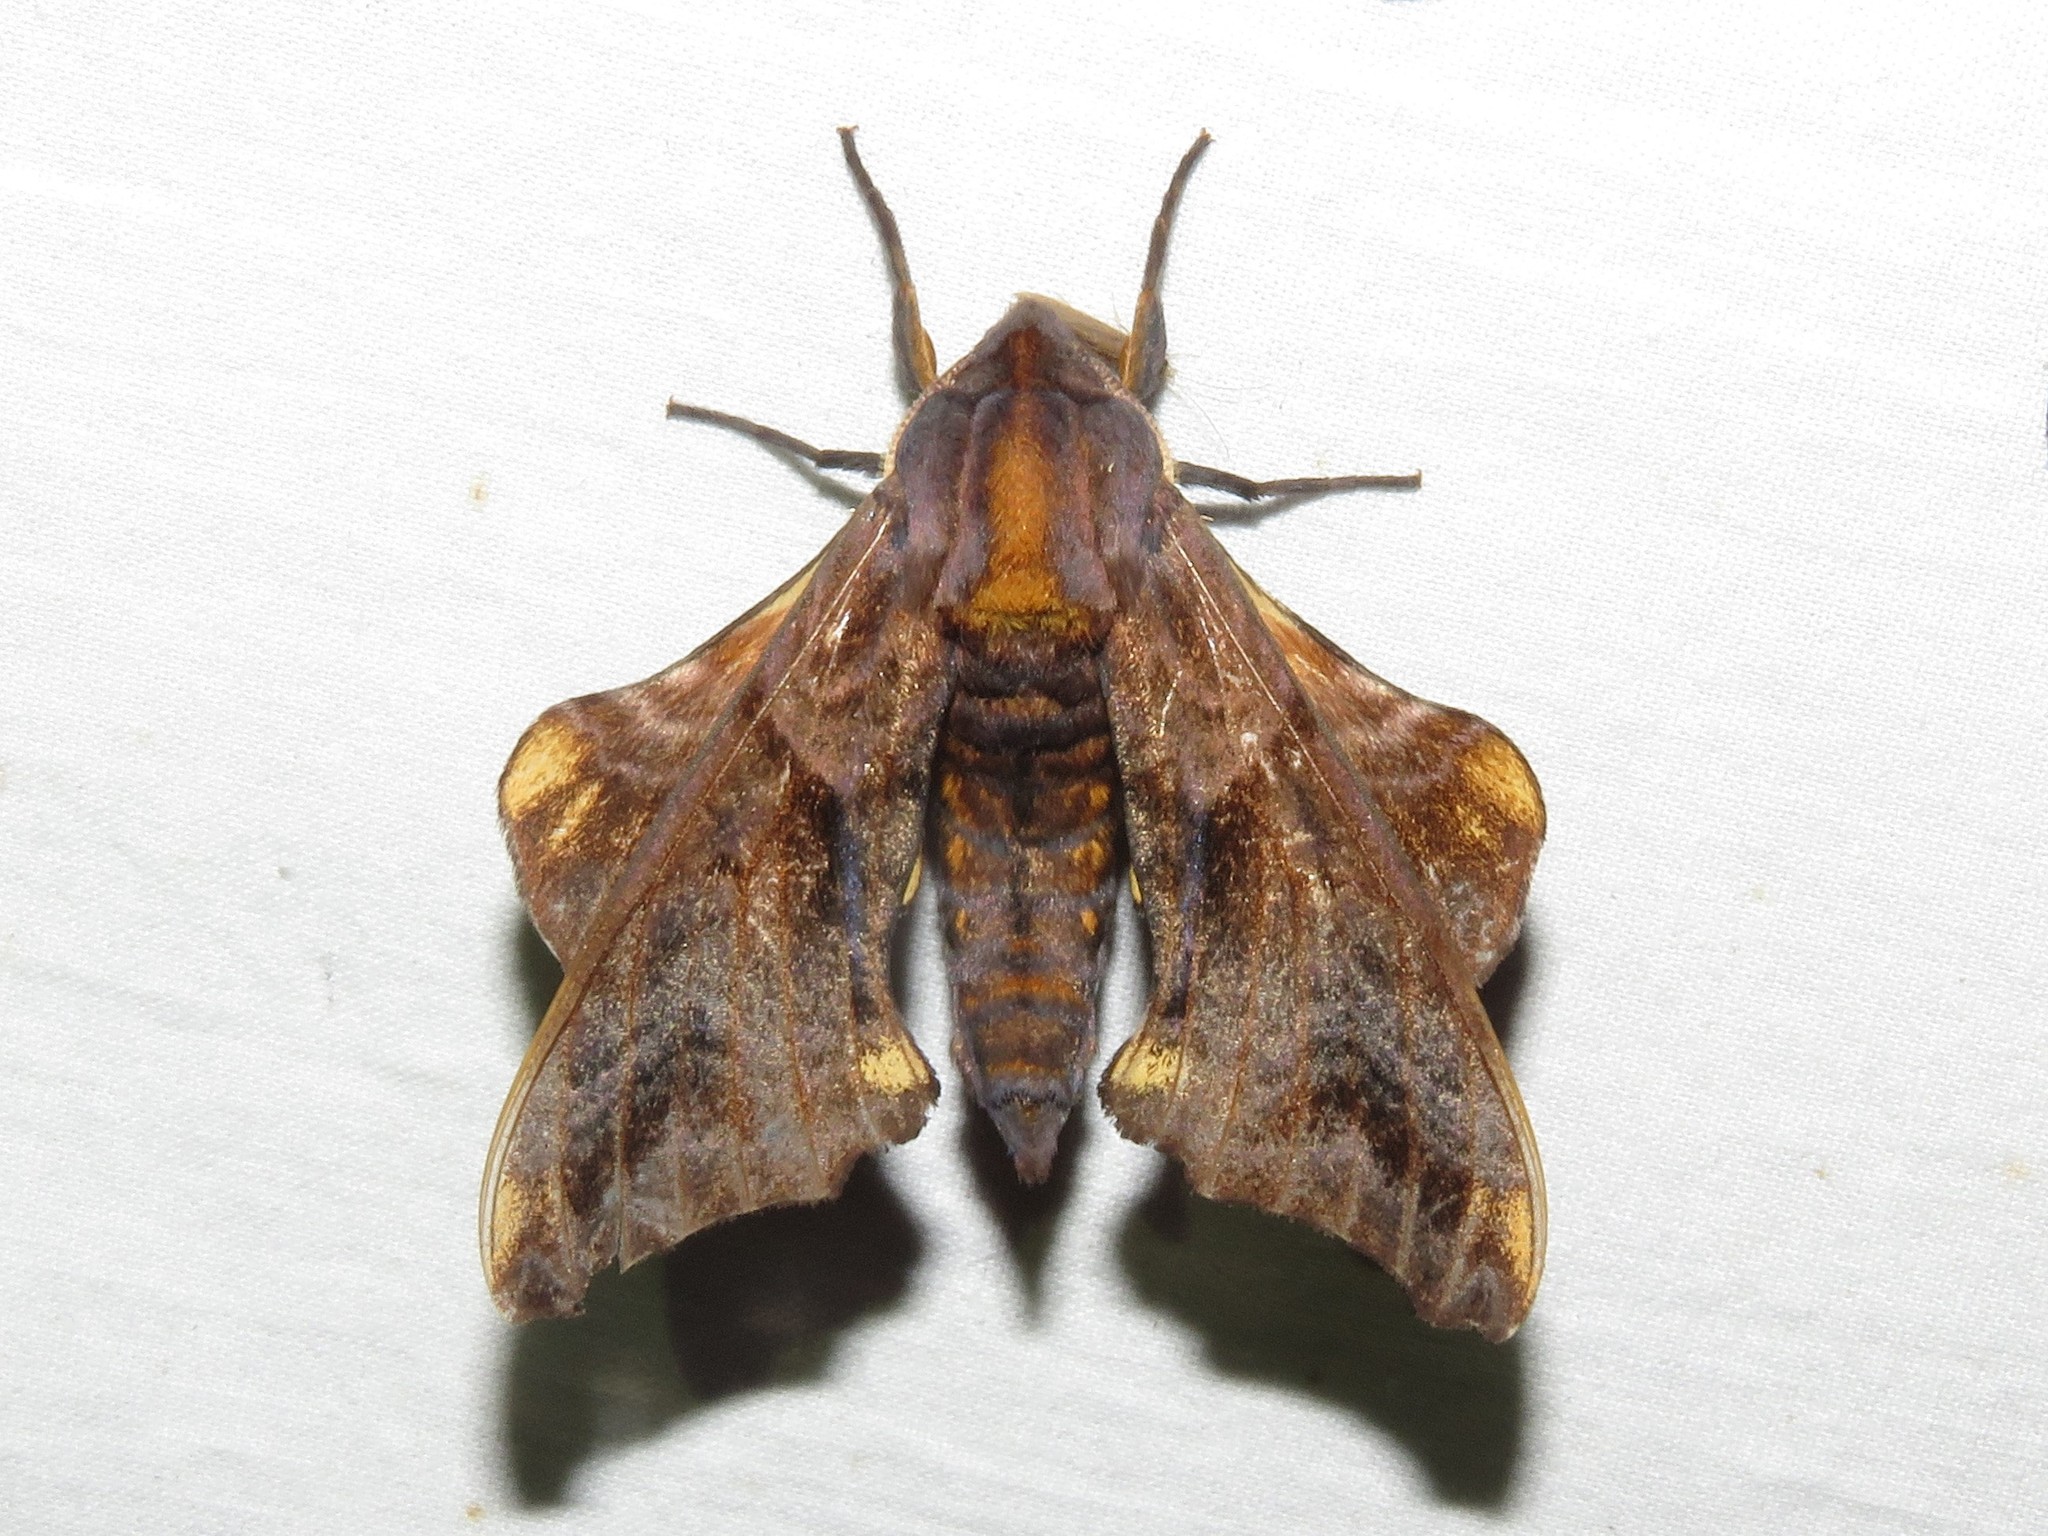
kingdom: Animalia
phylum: Arthropoda
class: Insecta
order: Lepidoptera
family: Sphingidae
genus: Paonias
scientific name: Paonias myops
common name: Small-eyed sphinx
